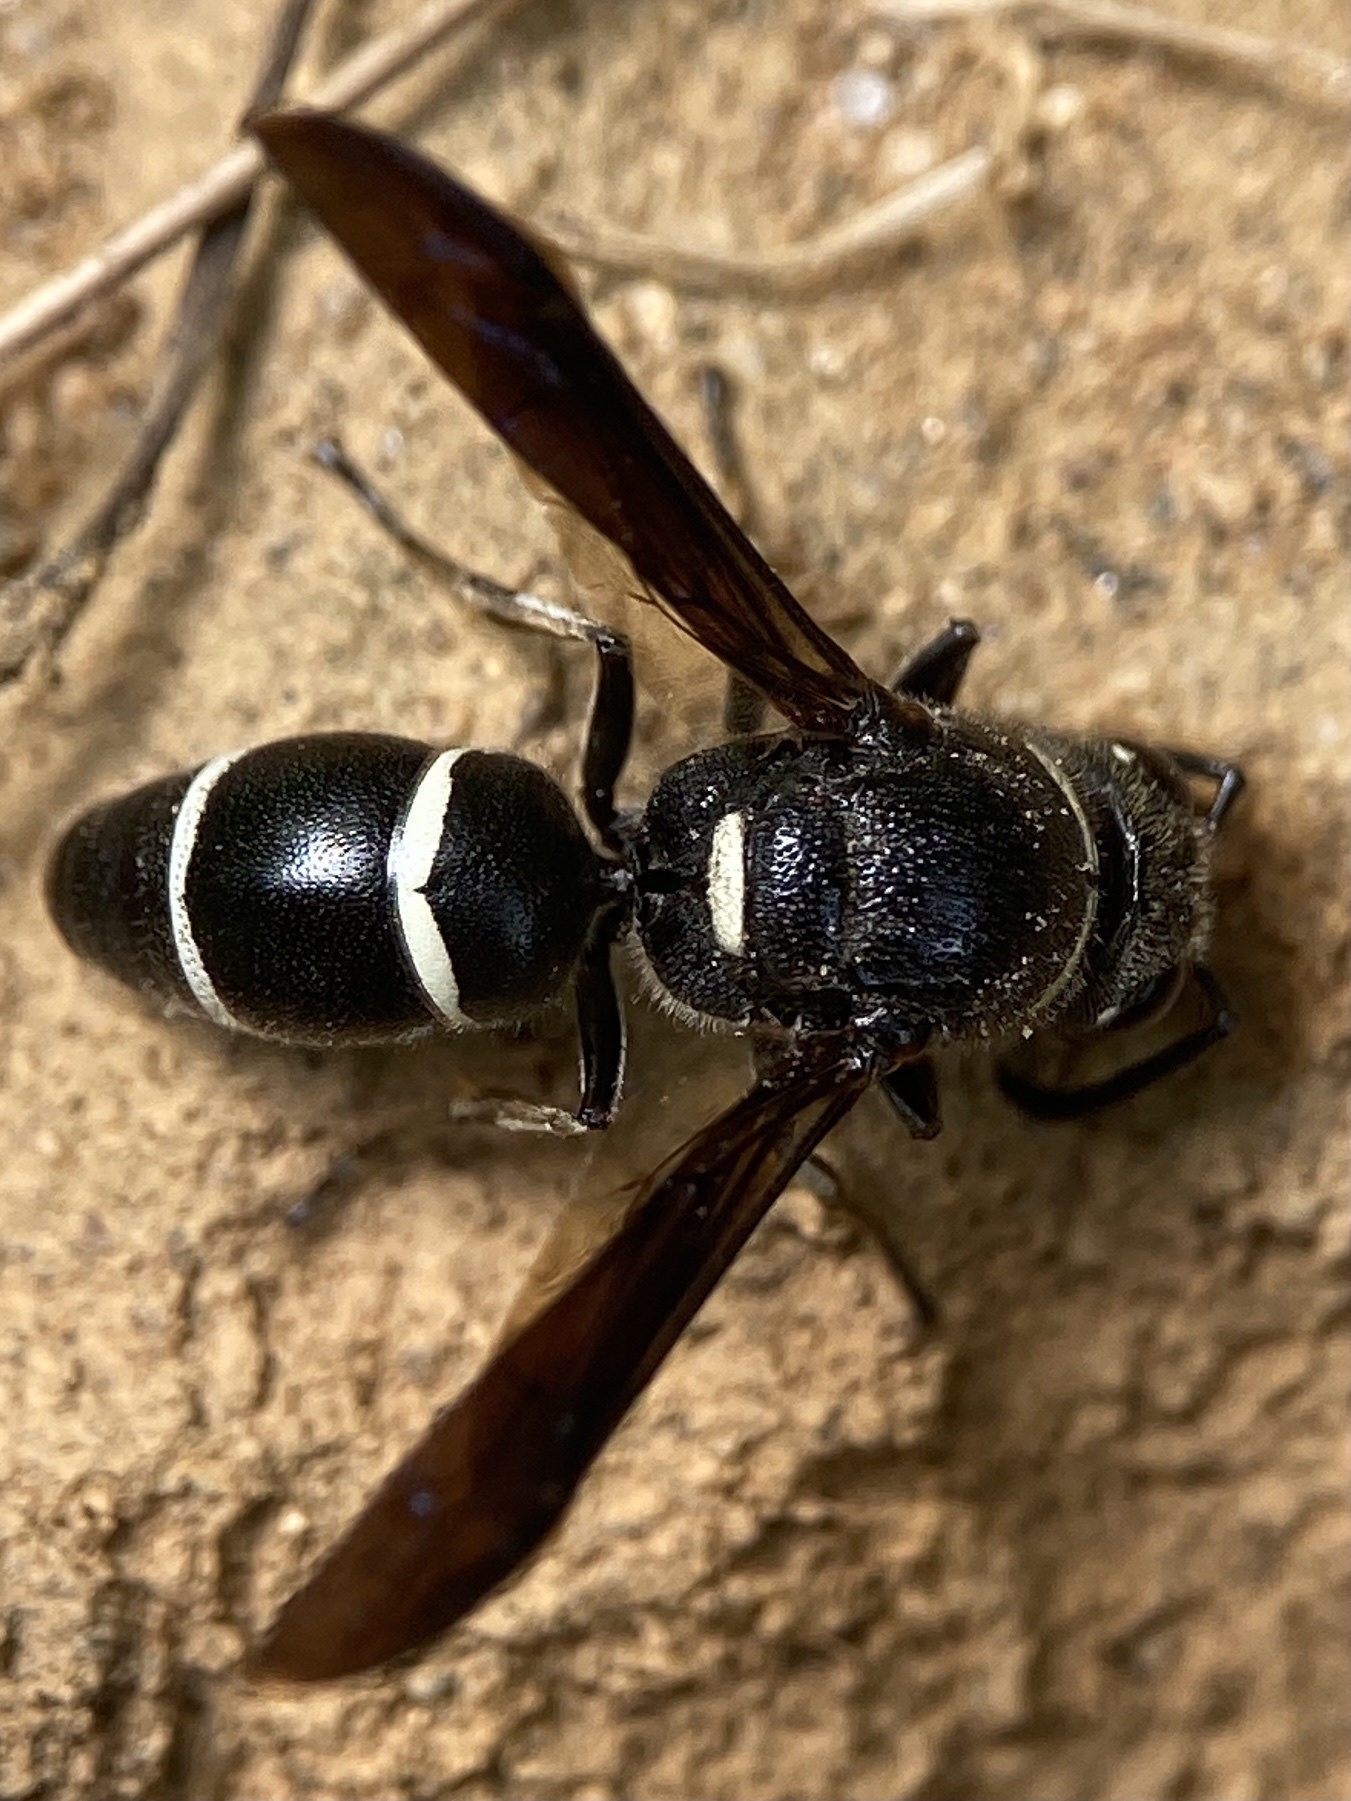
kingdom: Animalia
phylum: Arthropoda
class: Insecta
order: Hymenoptera
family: Eumenidae
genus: Euodynerus
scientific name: Euodynerus megaera
